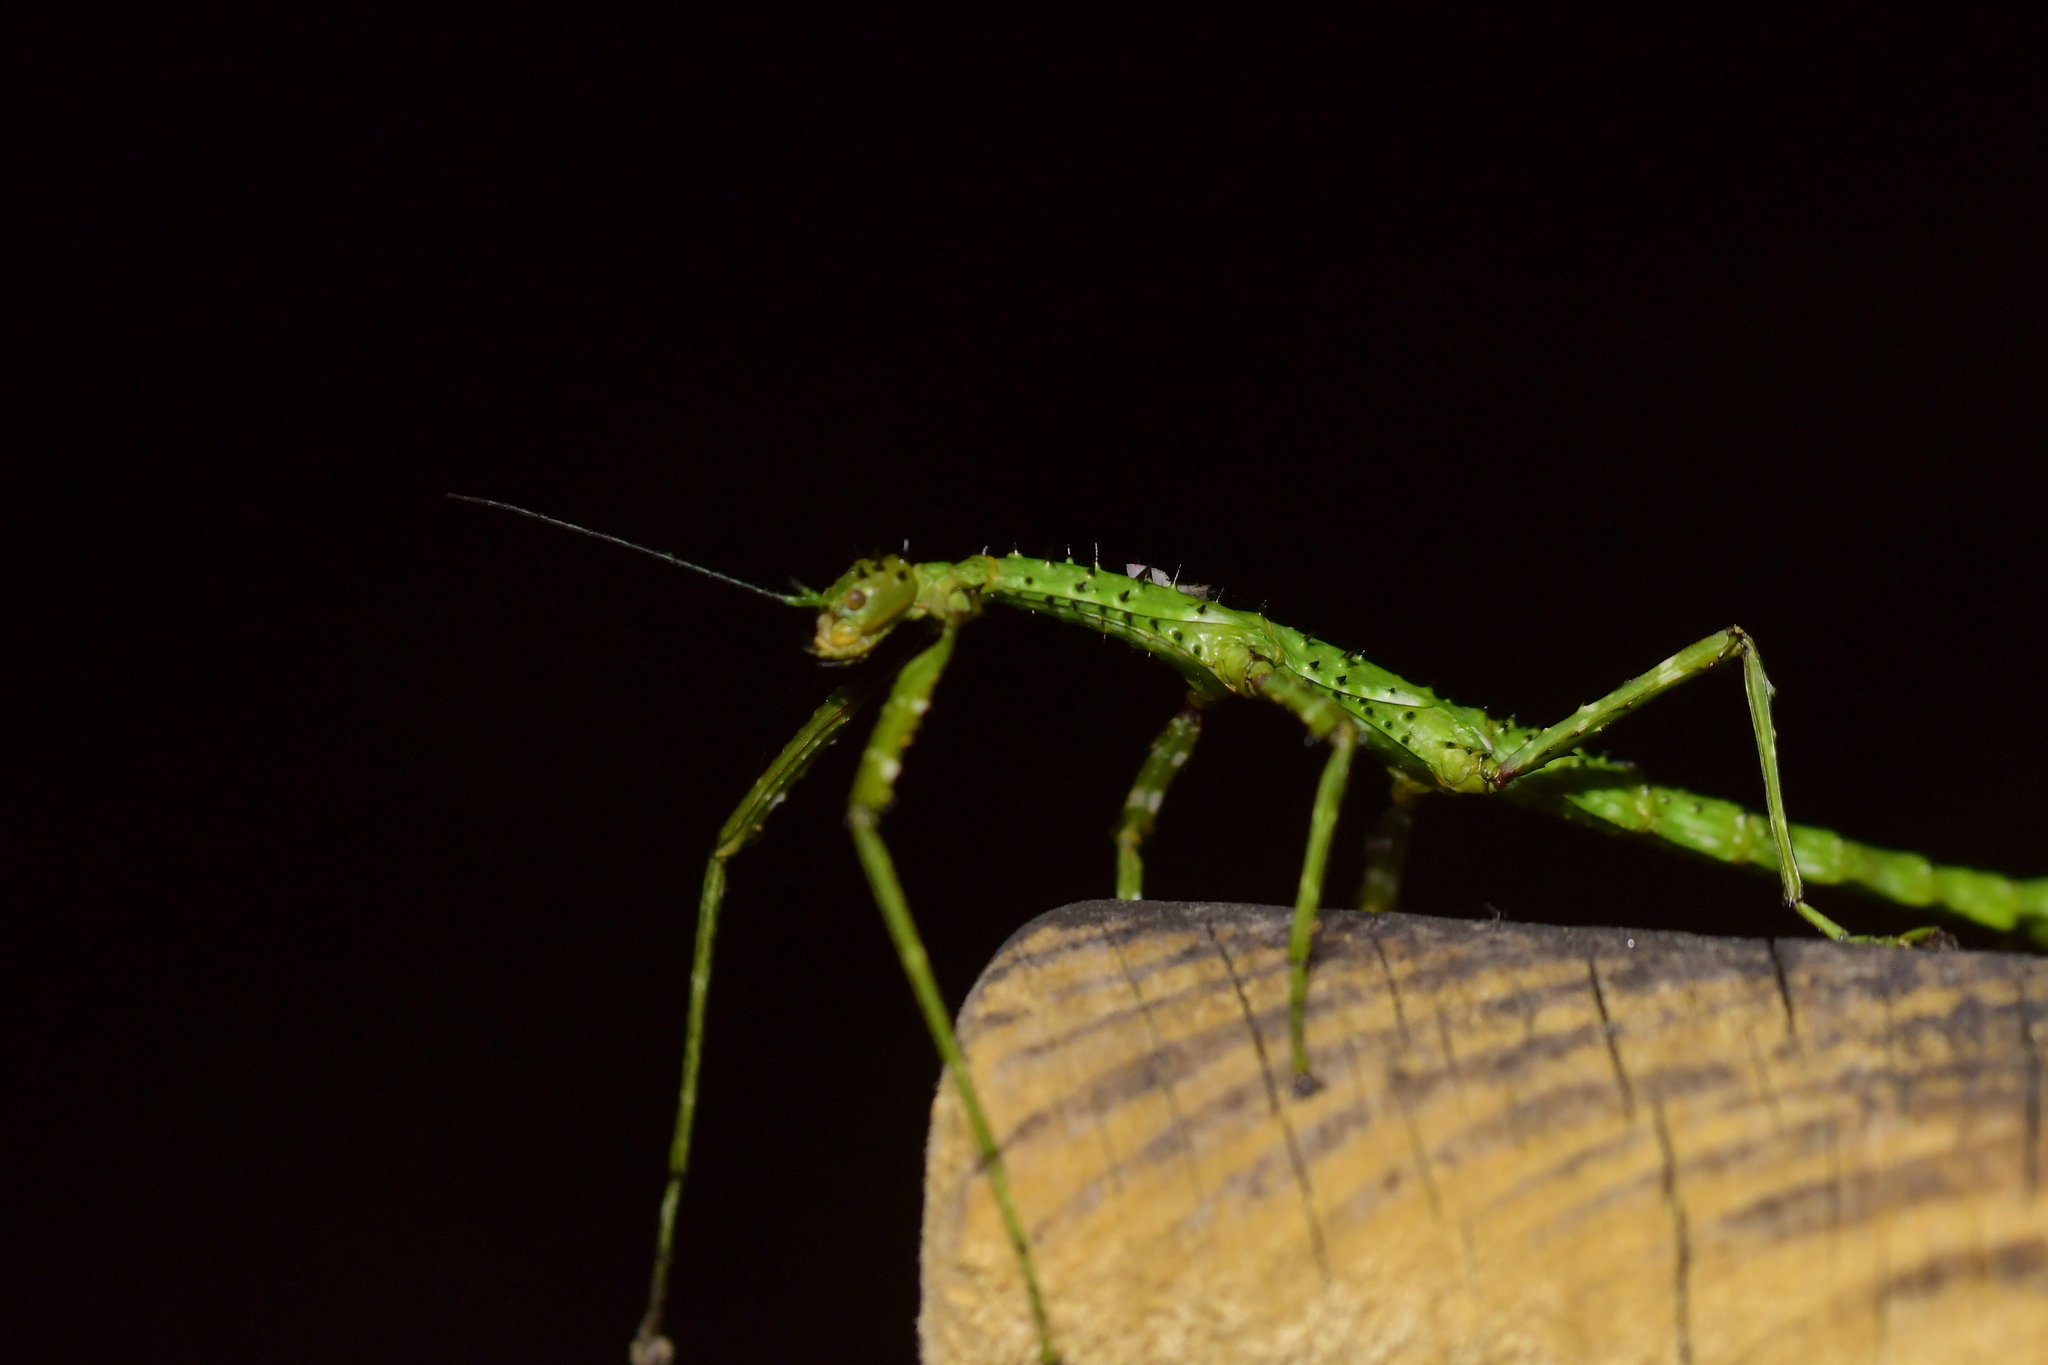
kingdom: Animalia
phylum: Arthropoda
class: Insecta
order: Phasmida
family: Phasmatidae
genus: Acanthoxyla
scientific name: Acanthoxyla prasina
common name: Black-spined stick insect
